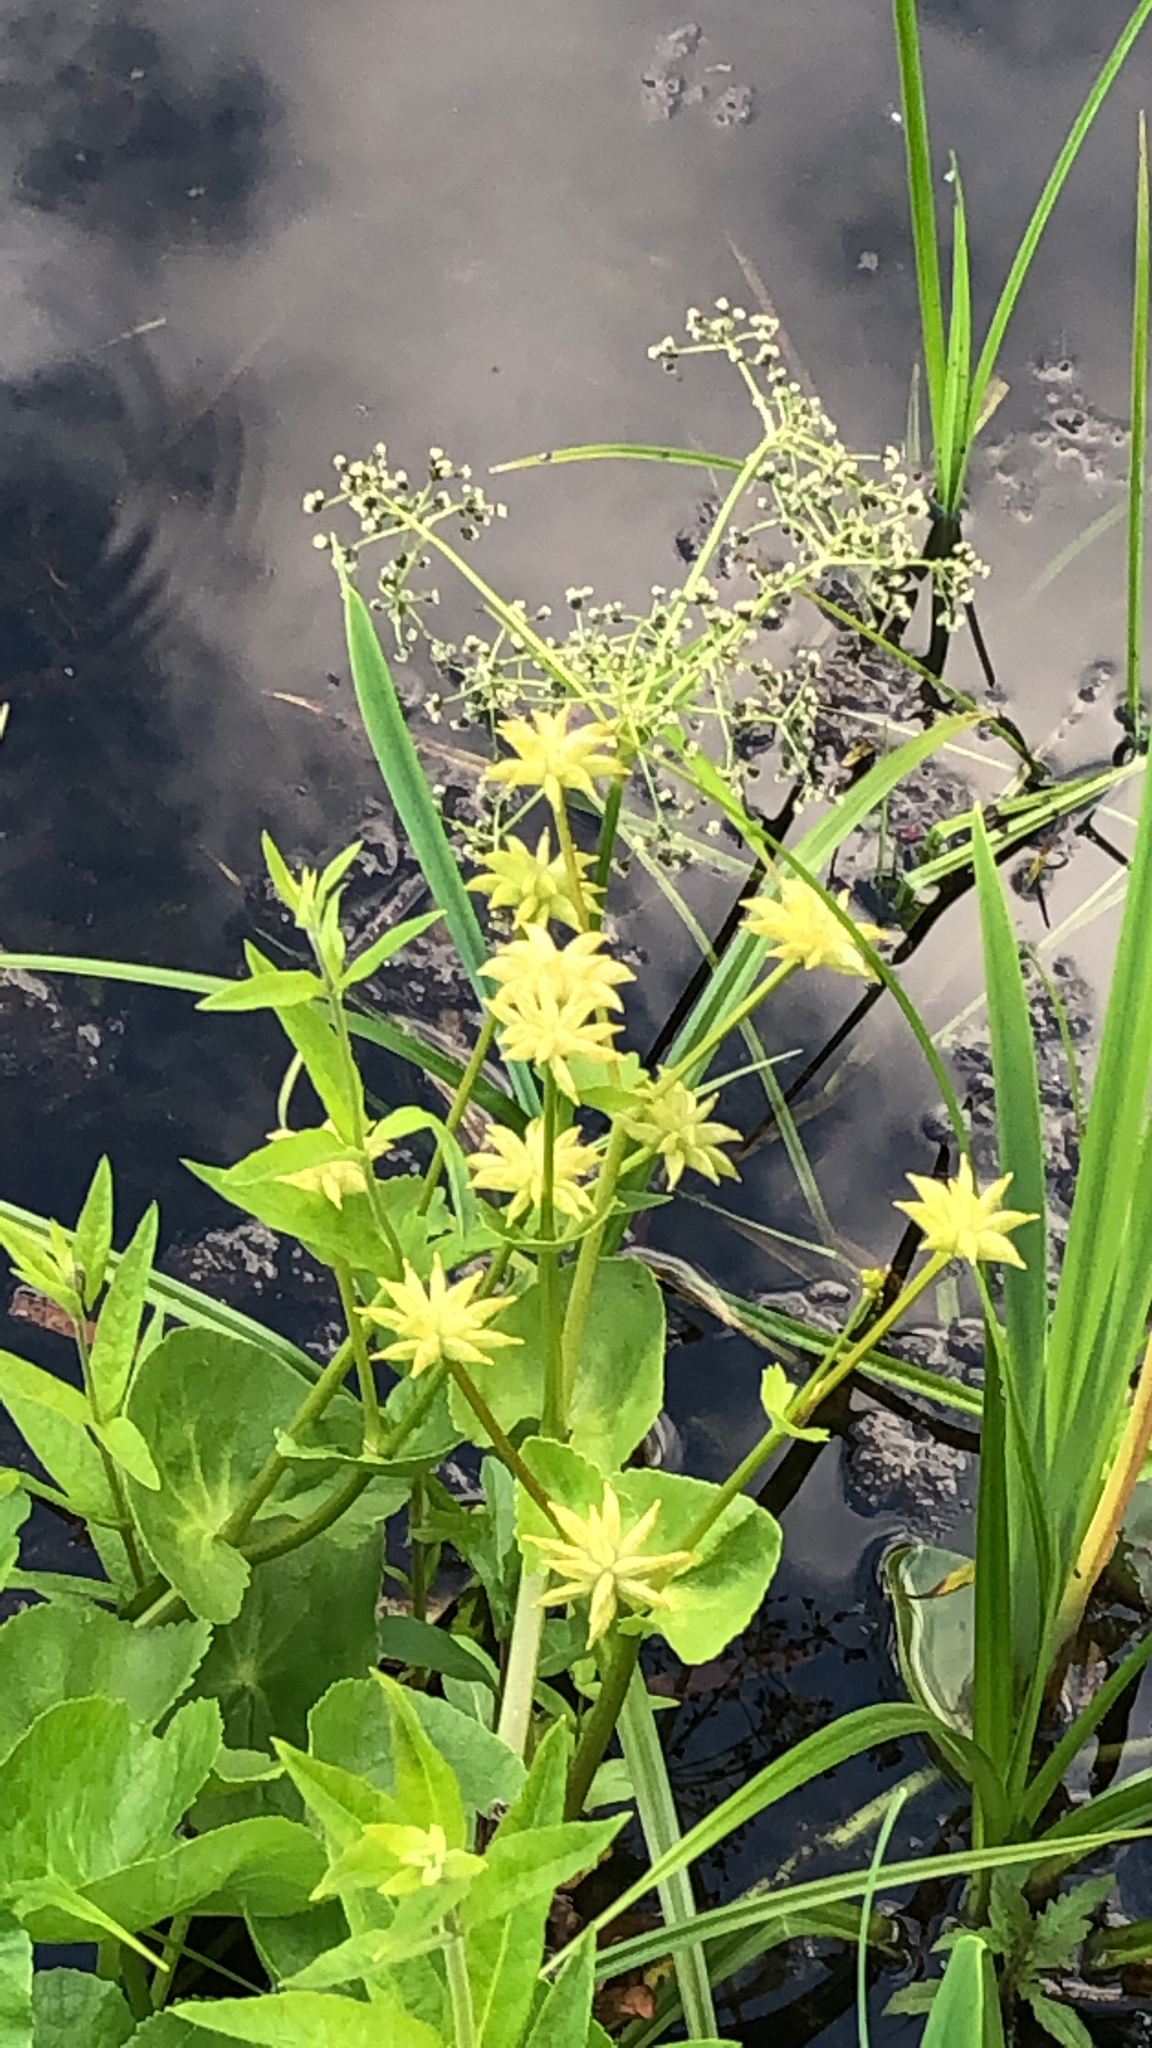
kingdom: Plantae
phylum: Tracheophyta
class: Magnoliopsida
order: Ranunculales
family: Ranunculaceae
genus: Caltha
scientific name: Caltha palustris
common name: Marsh marigold
